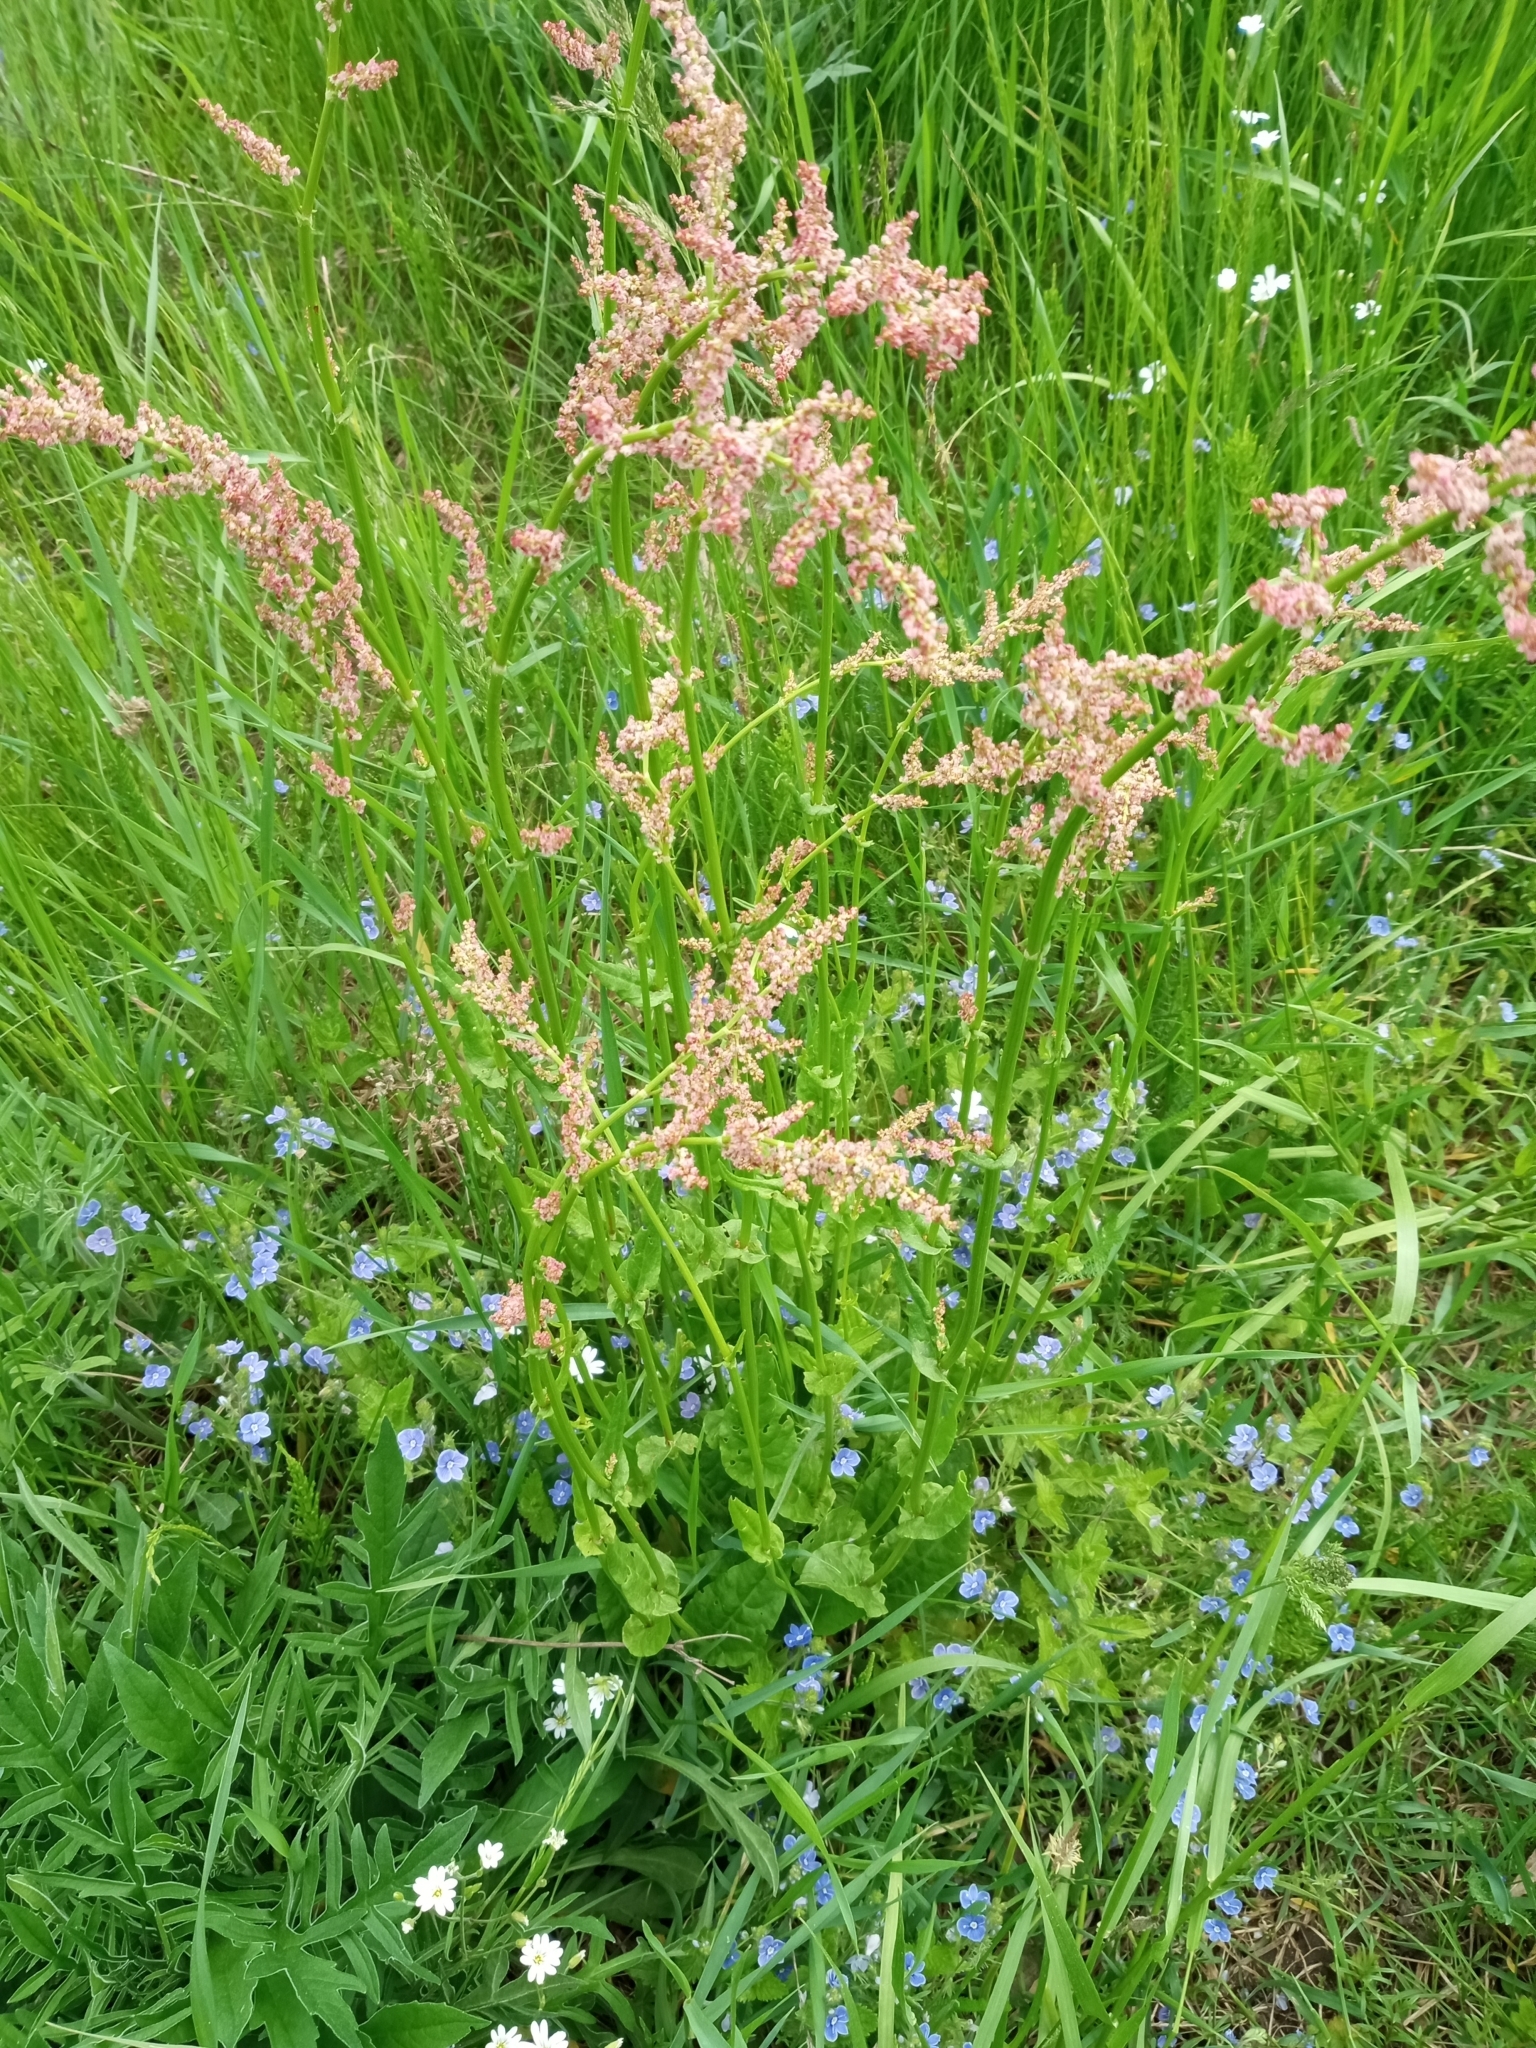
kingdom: Plantae
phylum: Tracheophyta
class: Magnoliopsida
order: Caryophyllales
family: Polygonaceae
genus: Rumex
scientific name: Rumex acetosa
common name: Garden sorrel
